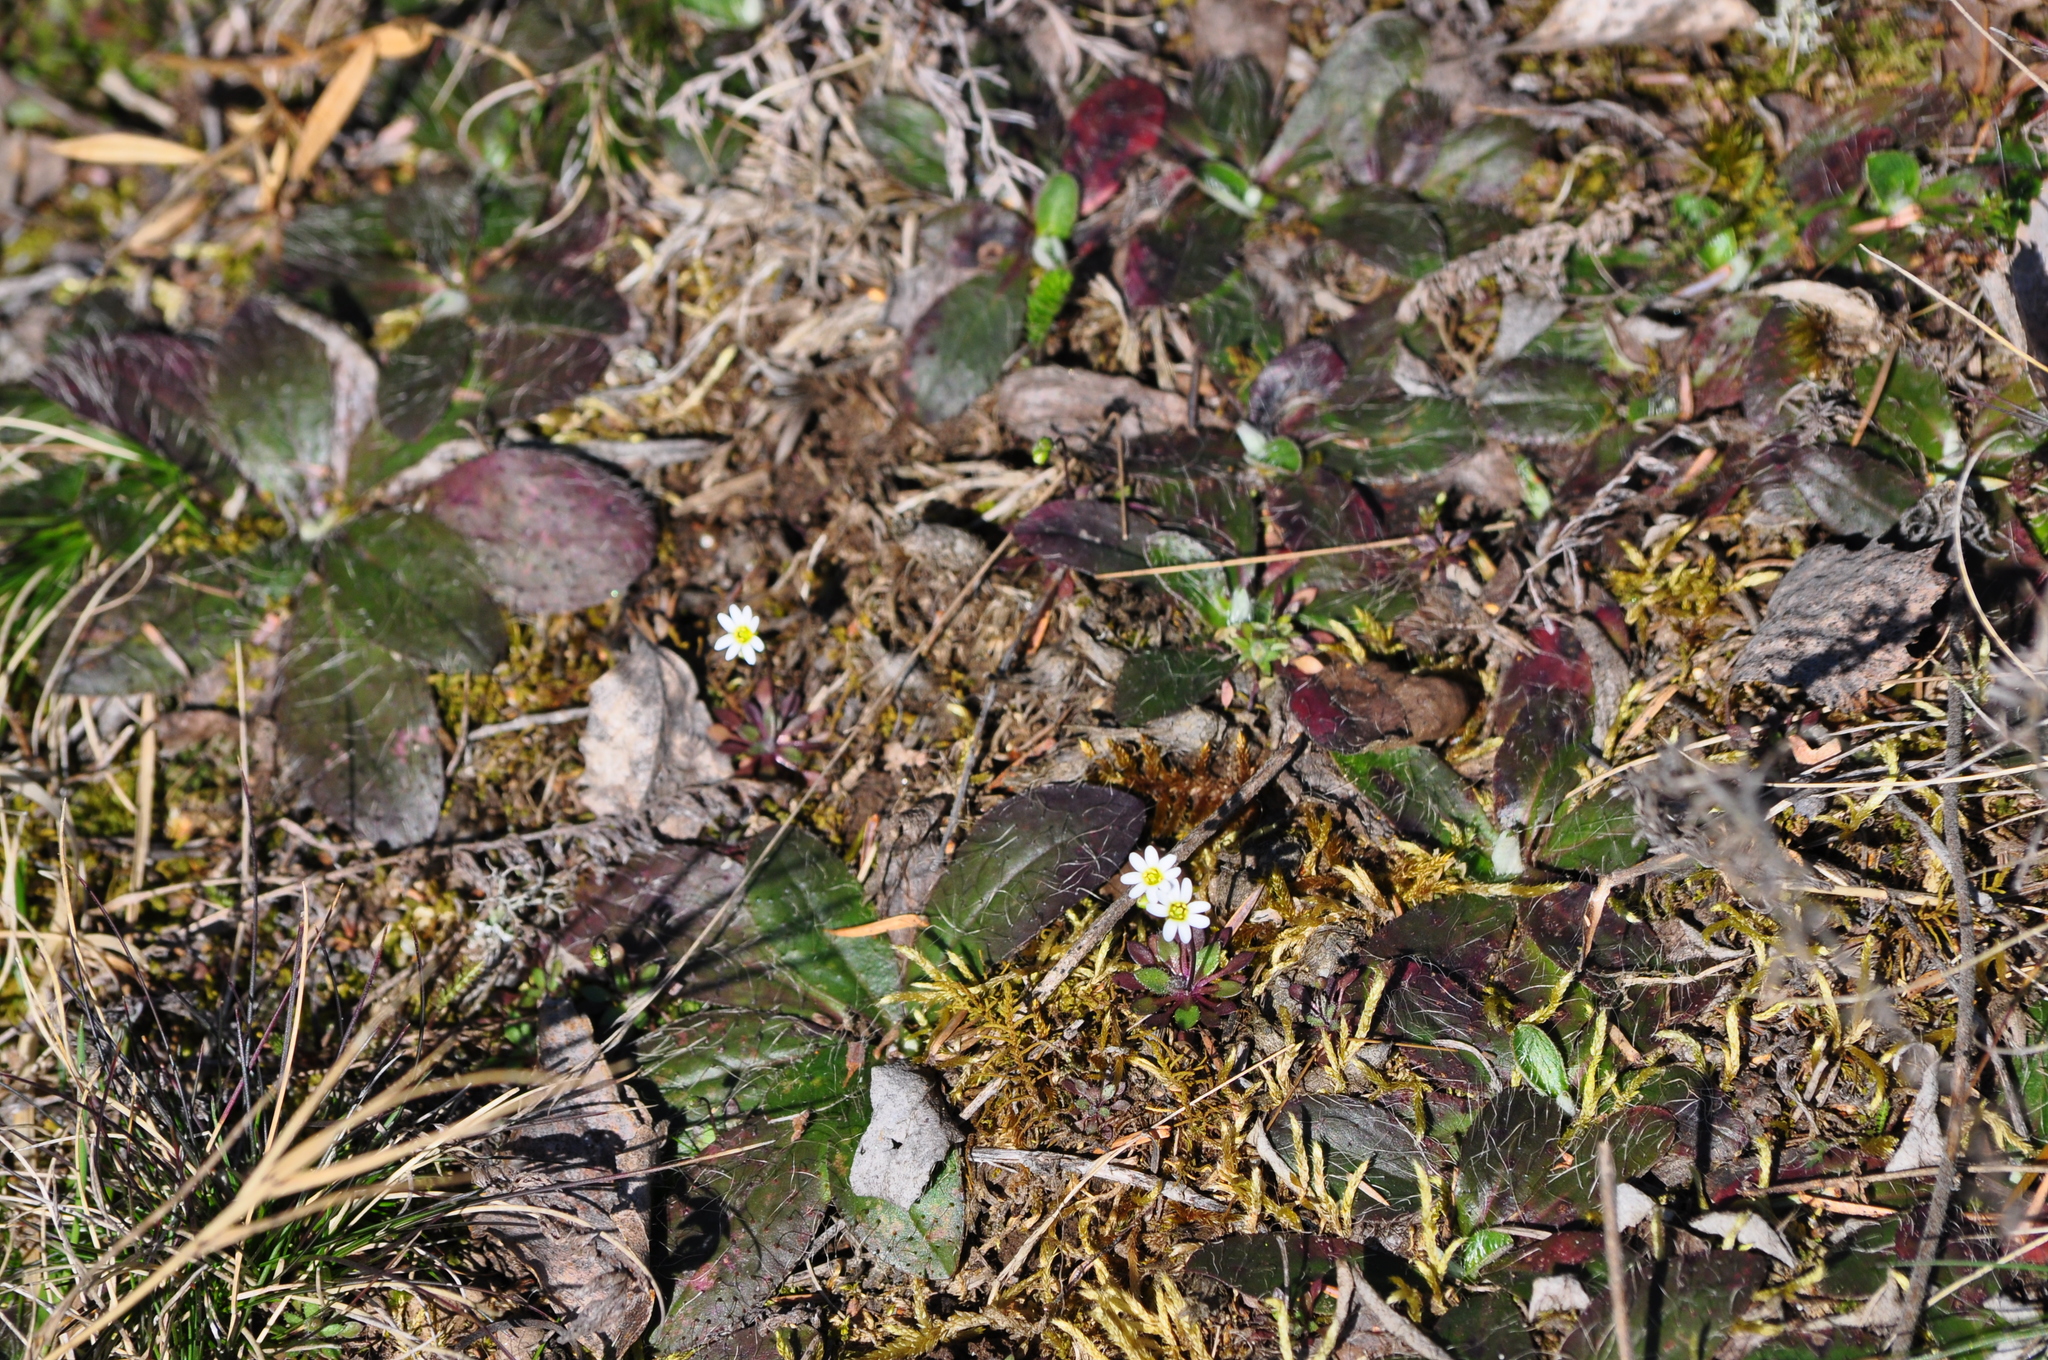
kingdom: Plantae
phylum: Tracheophyta
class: Magnoliopsida
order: Brassicales
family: Brassicaceae
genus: Draba
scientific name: Draba verna
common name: Spring draba
